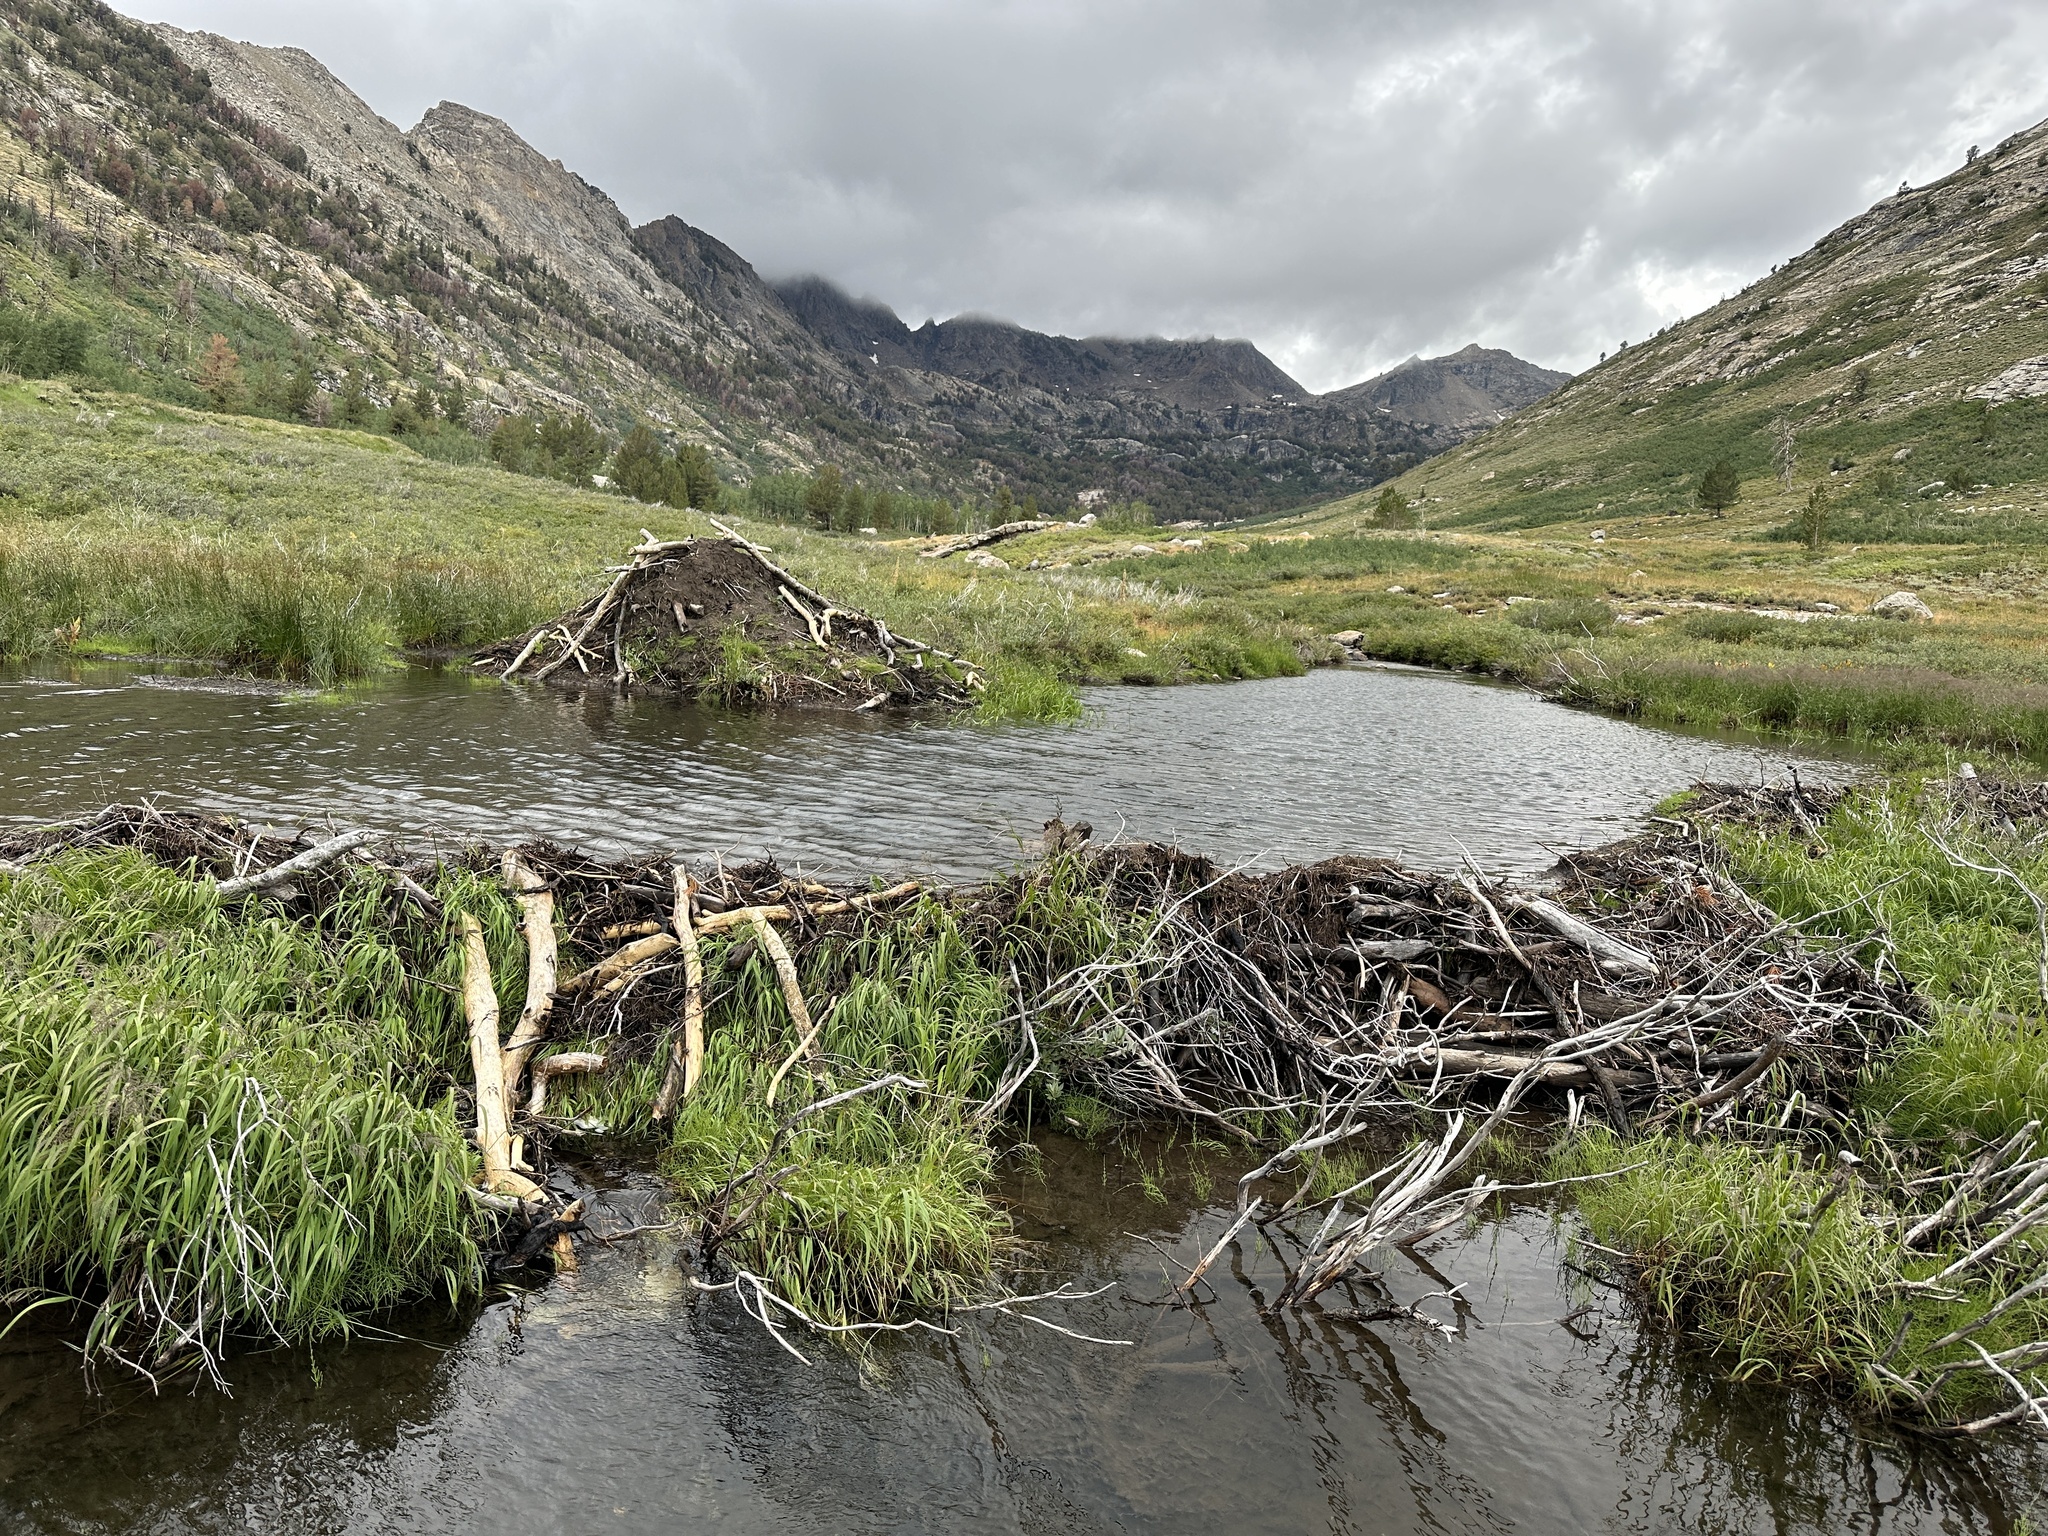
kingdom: Animalia
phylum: Chordata
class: Mammalia
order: Rodentia
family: Castoridae
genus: Castor
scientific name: Castor canadensis
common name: American beaver
